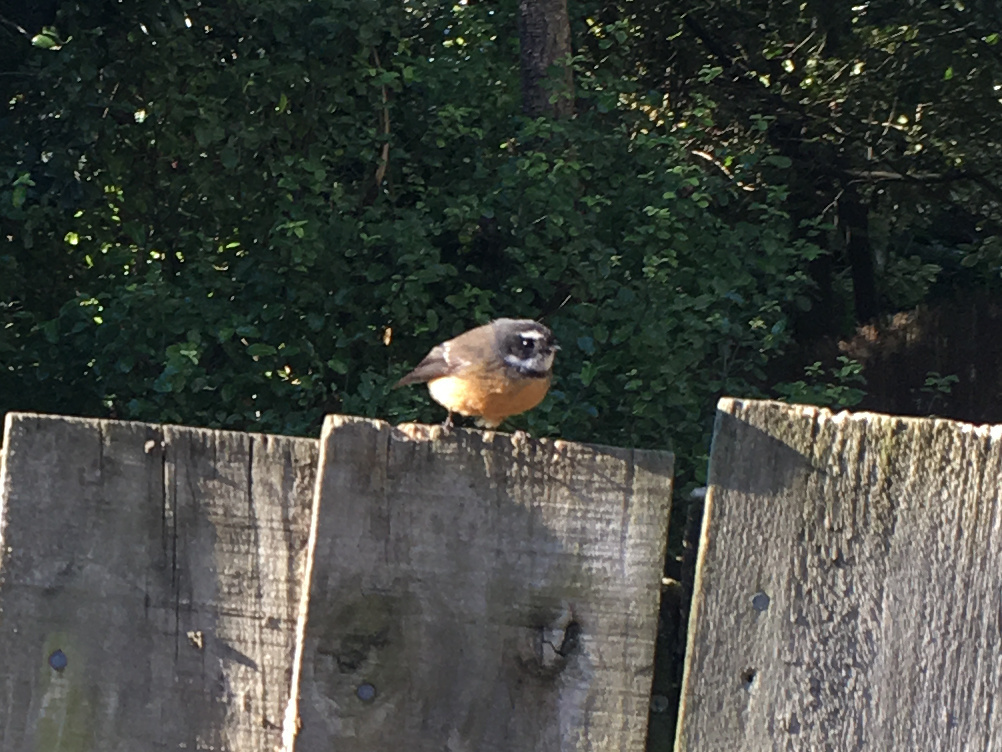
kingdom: Animalia
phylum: Chordata
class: Aves
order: Passeriformes
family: Rhipiduridae
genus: Rhipidura
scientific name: Rhipidura fuliginosa
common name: New zealand fantail
